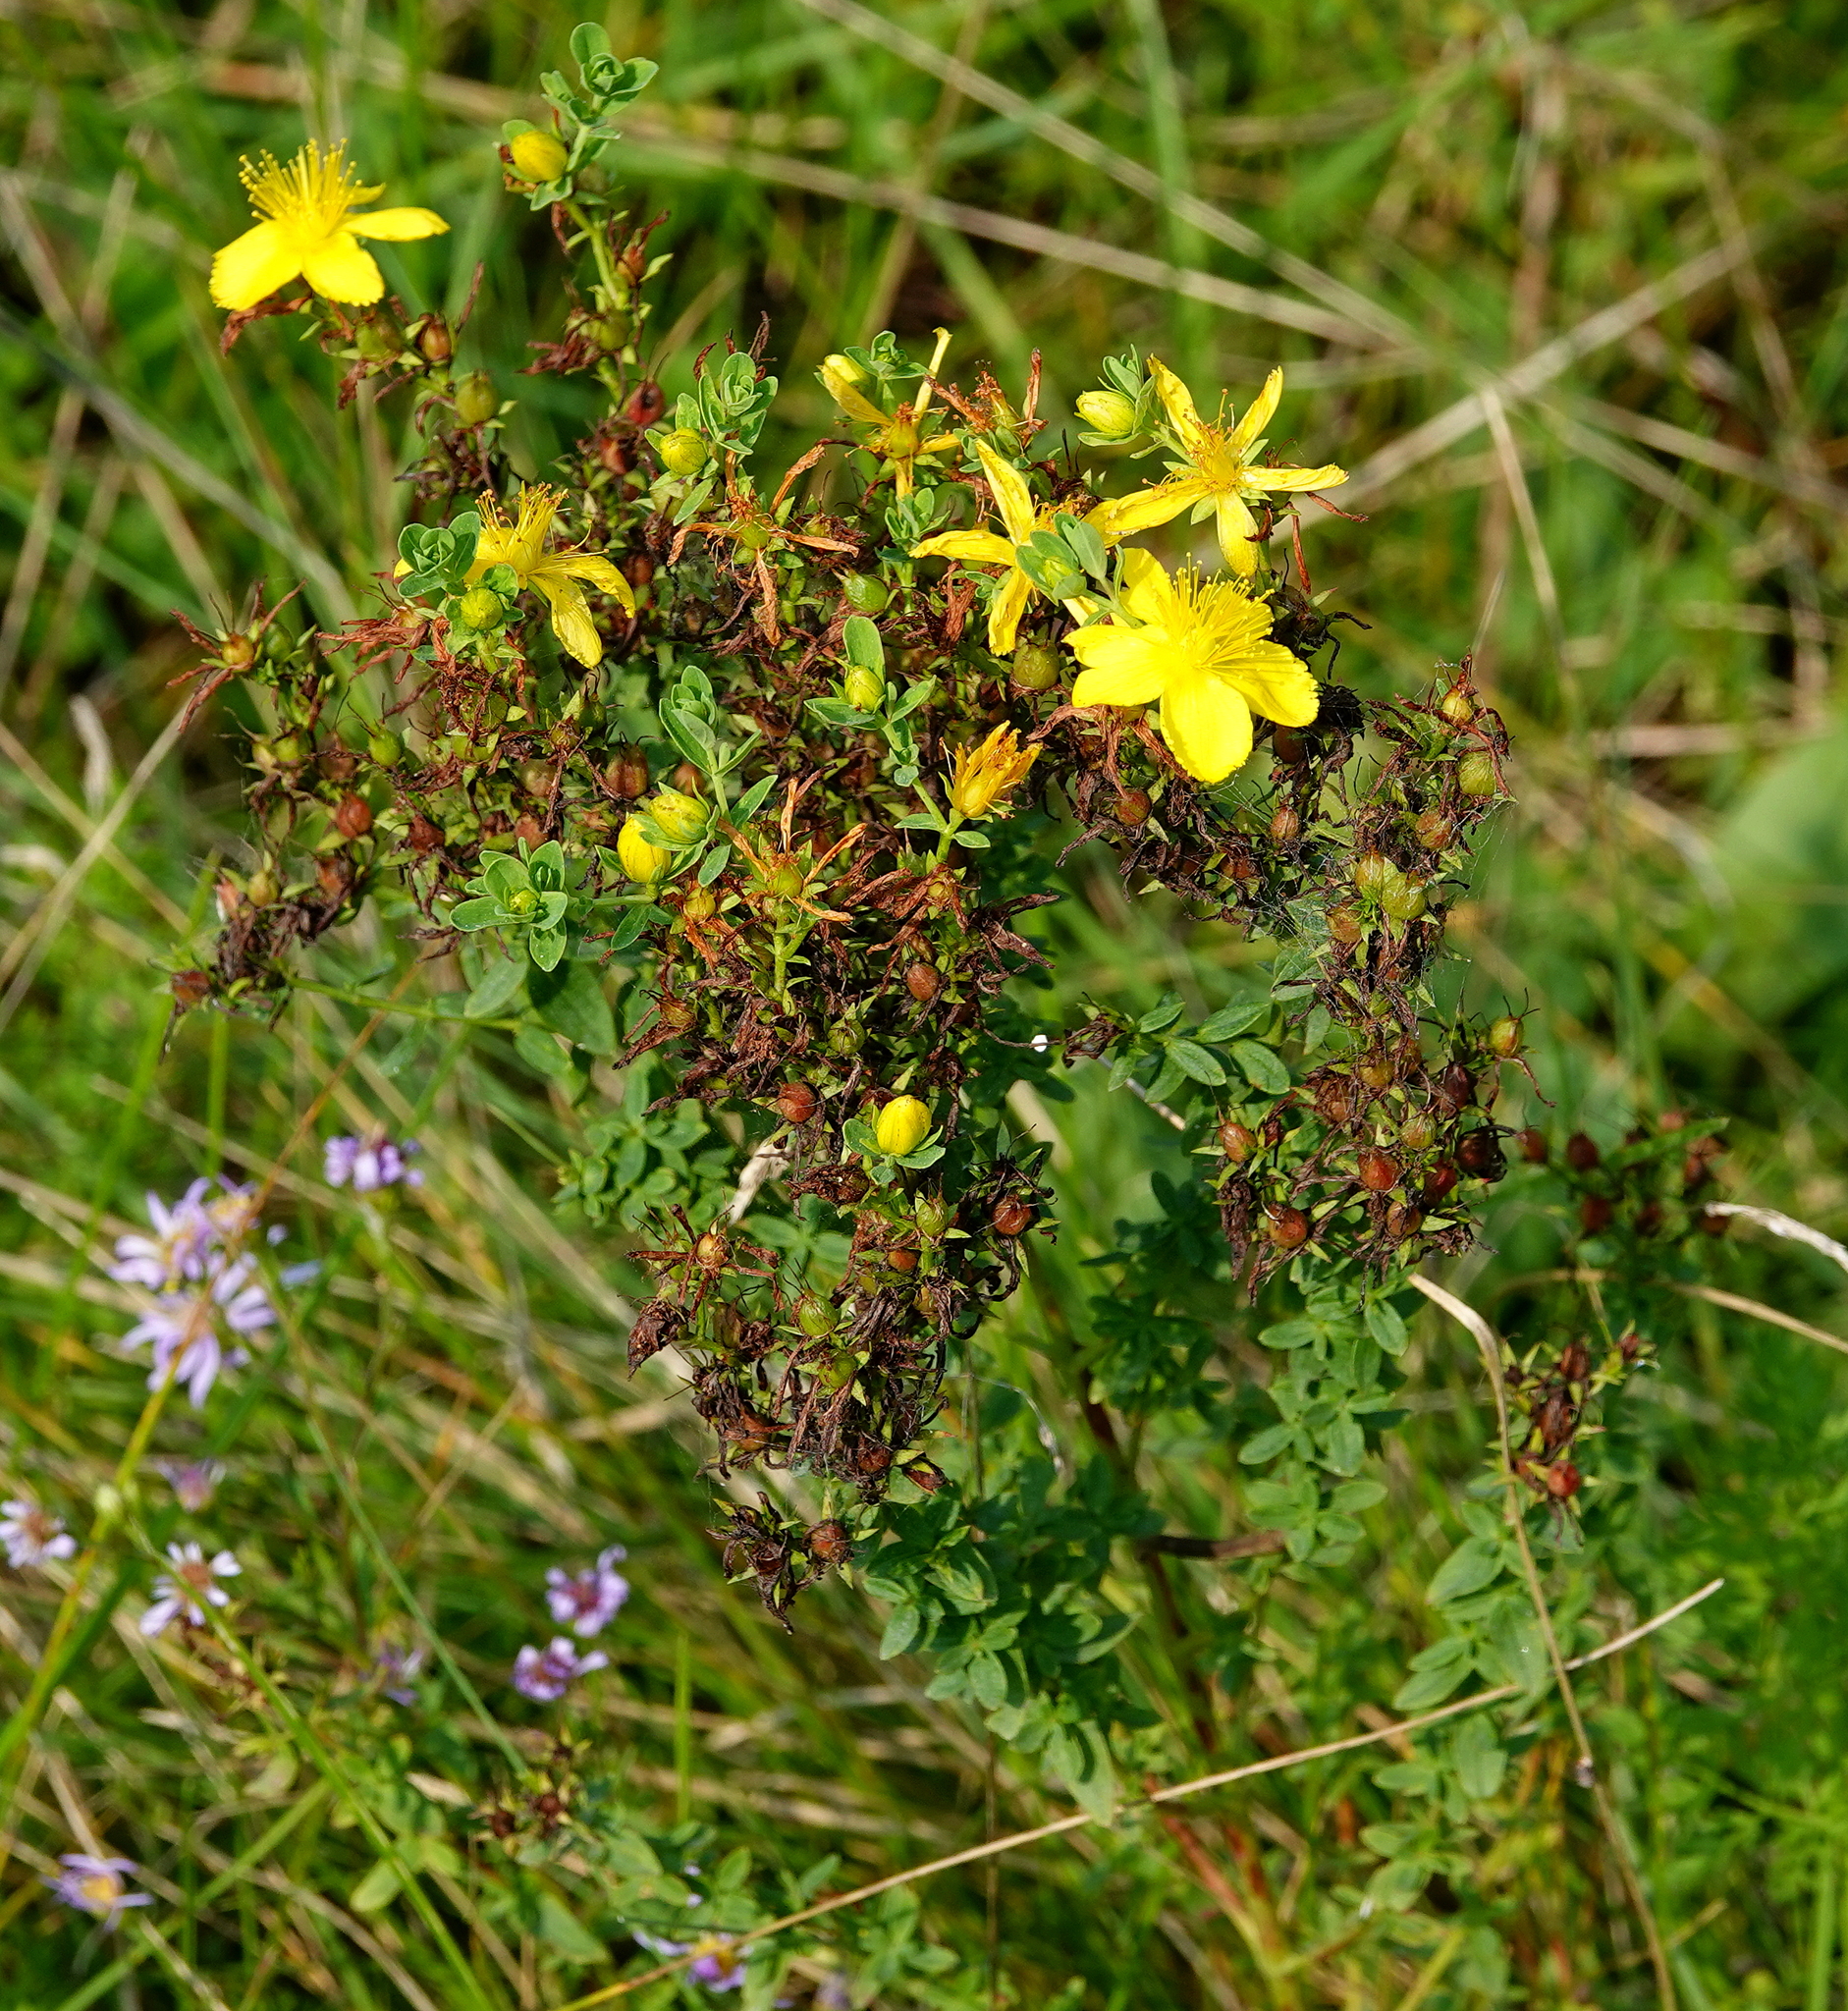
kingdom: Plantae
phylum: Tracheophyta
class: Magnoliopsida
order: Malpighiales
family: Hypericaceae
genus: Hypericum
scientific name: Hypericum perforatum
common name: Common st. johnswort
